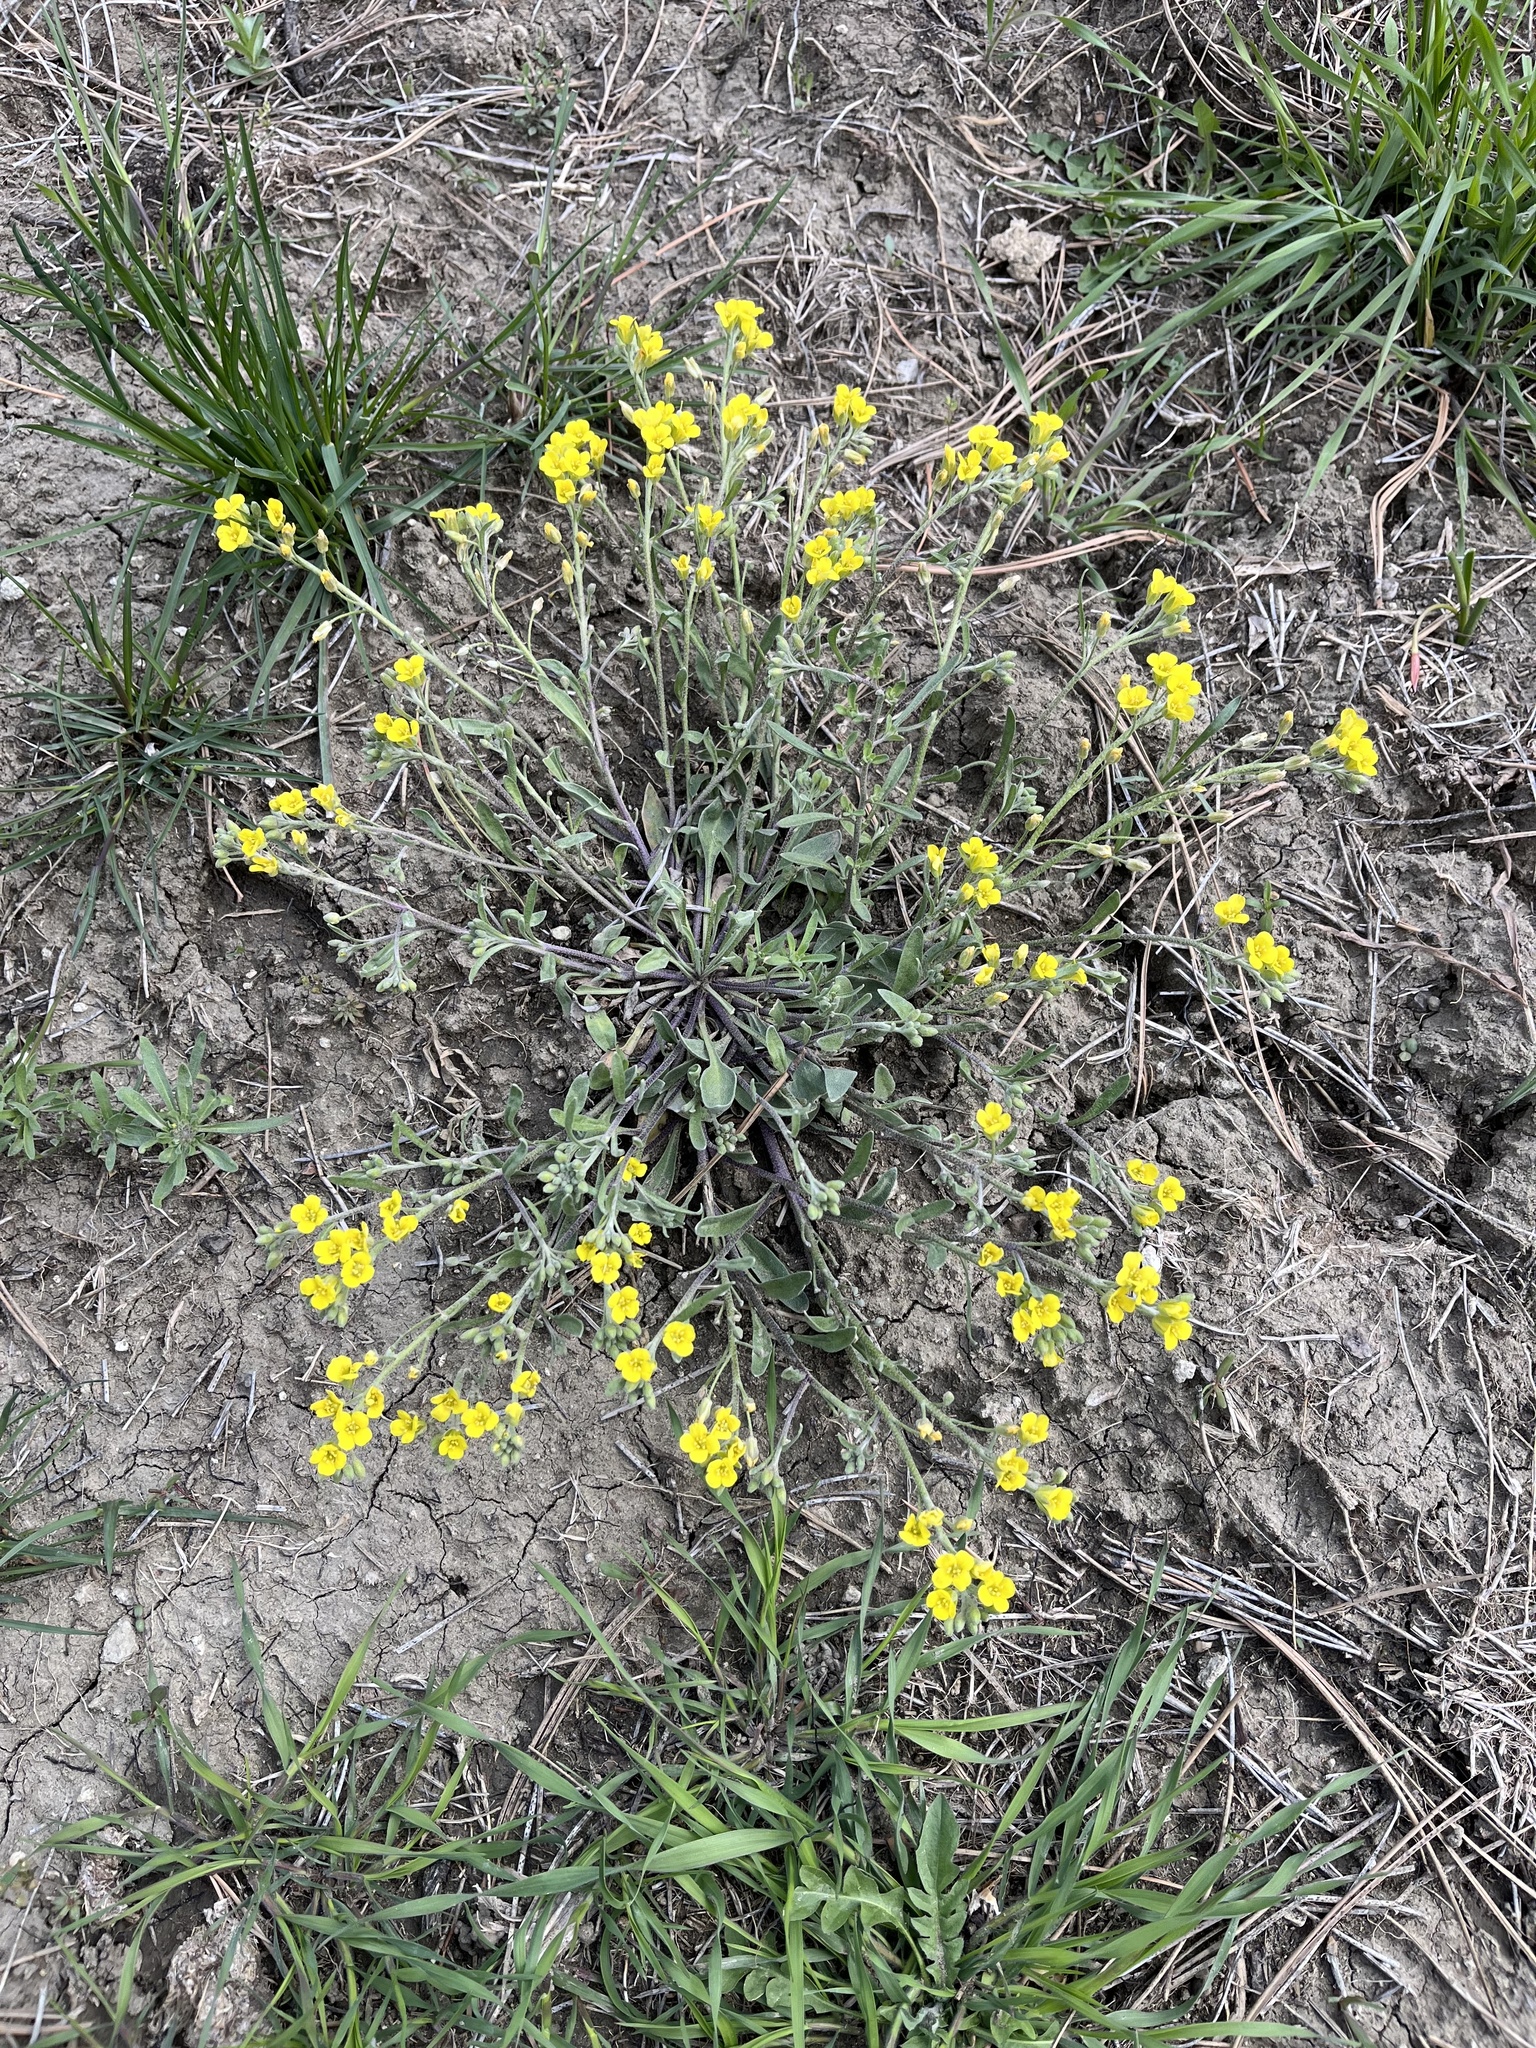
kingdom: Plantae
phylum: Tracheophyta
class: Magnoliopsida
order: Brassicales
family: Brassicaceae
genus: Physaria
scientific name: Physaria arenosa
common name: Great plains bladderpod
